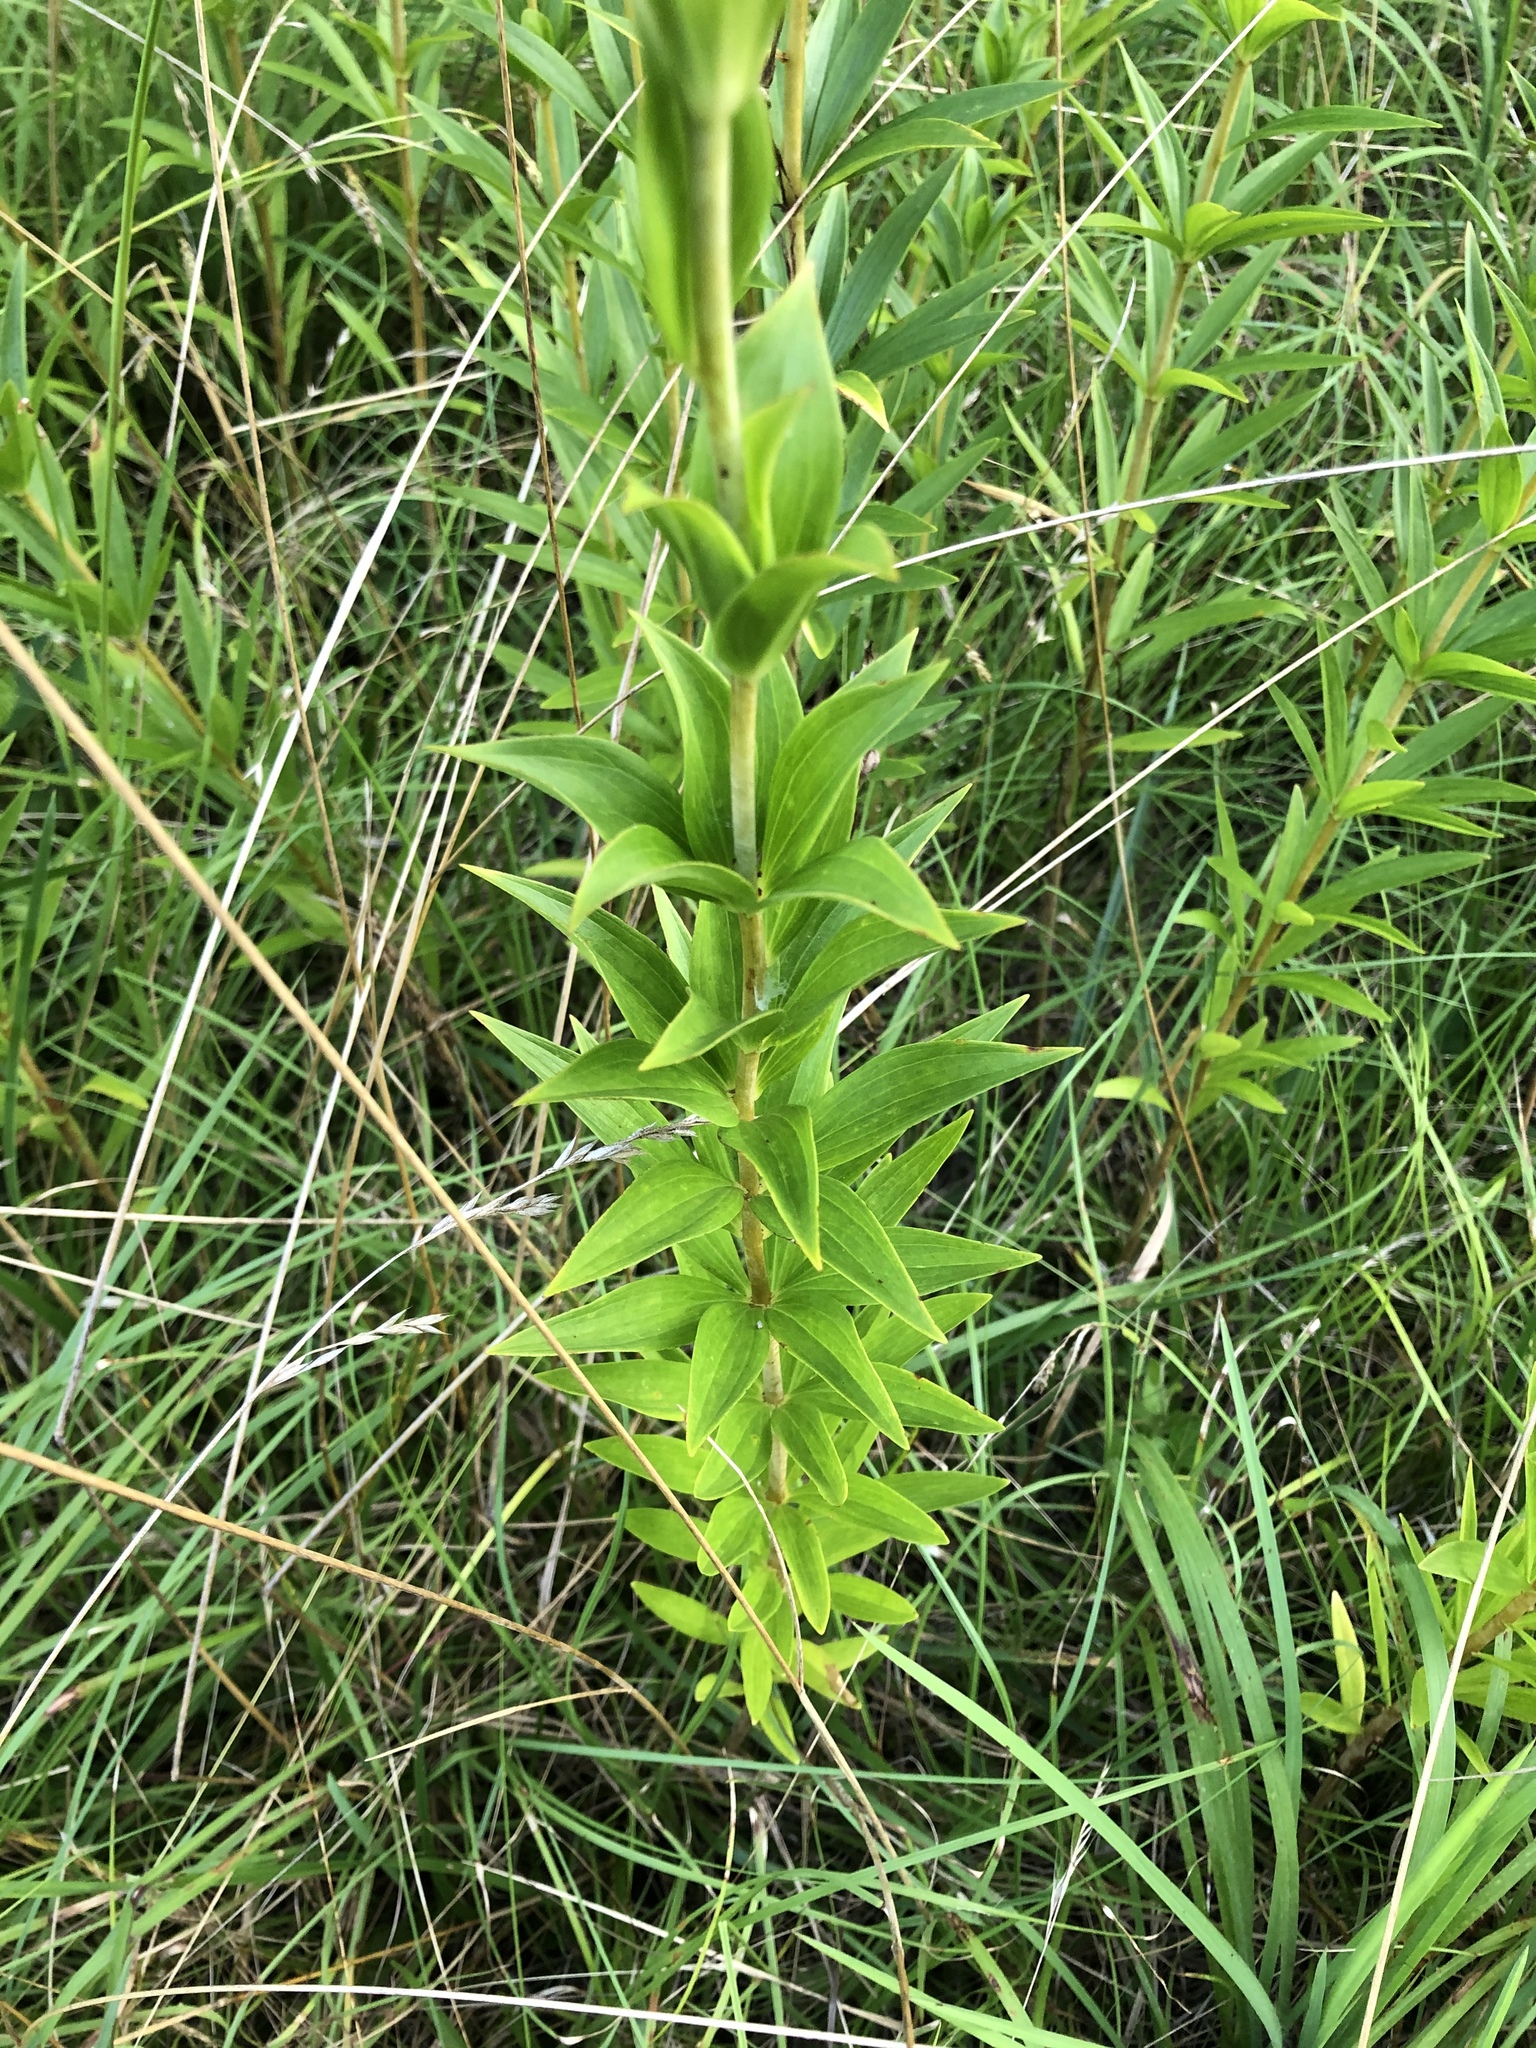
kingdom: Plantae
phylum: Tracheophyta
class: Liliopsida
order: Liliales
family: Liliaceae
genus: Lilium
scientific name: Lilium superbum
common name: American turk's-cap lily
